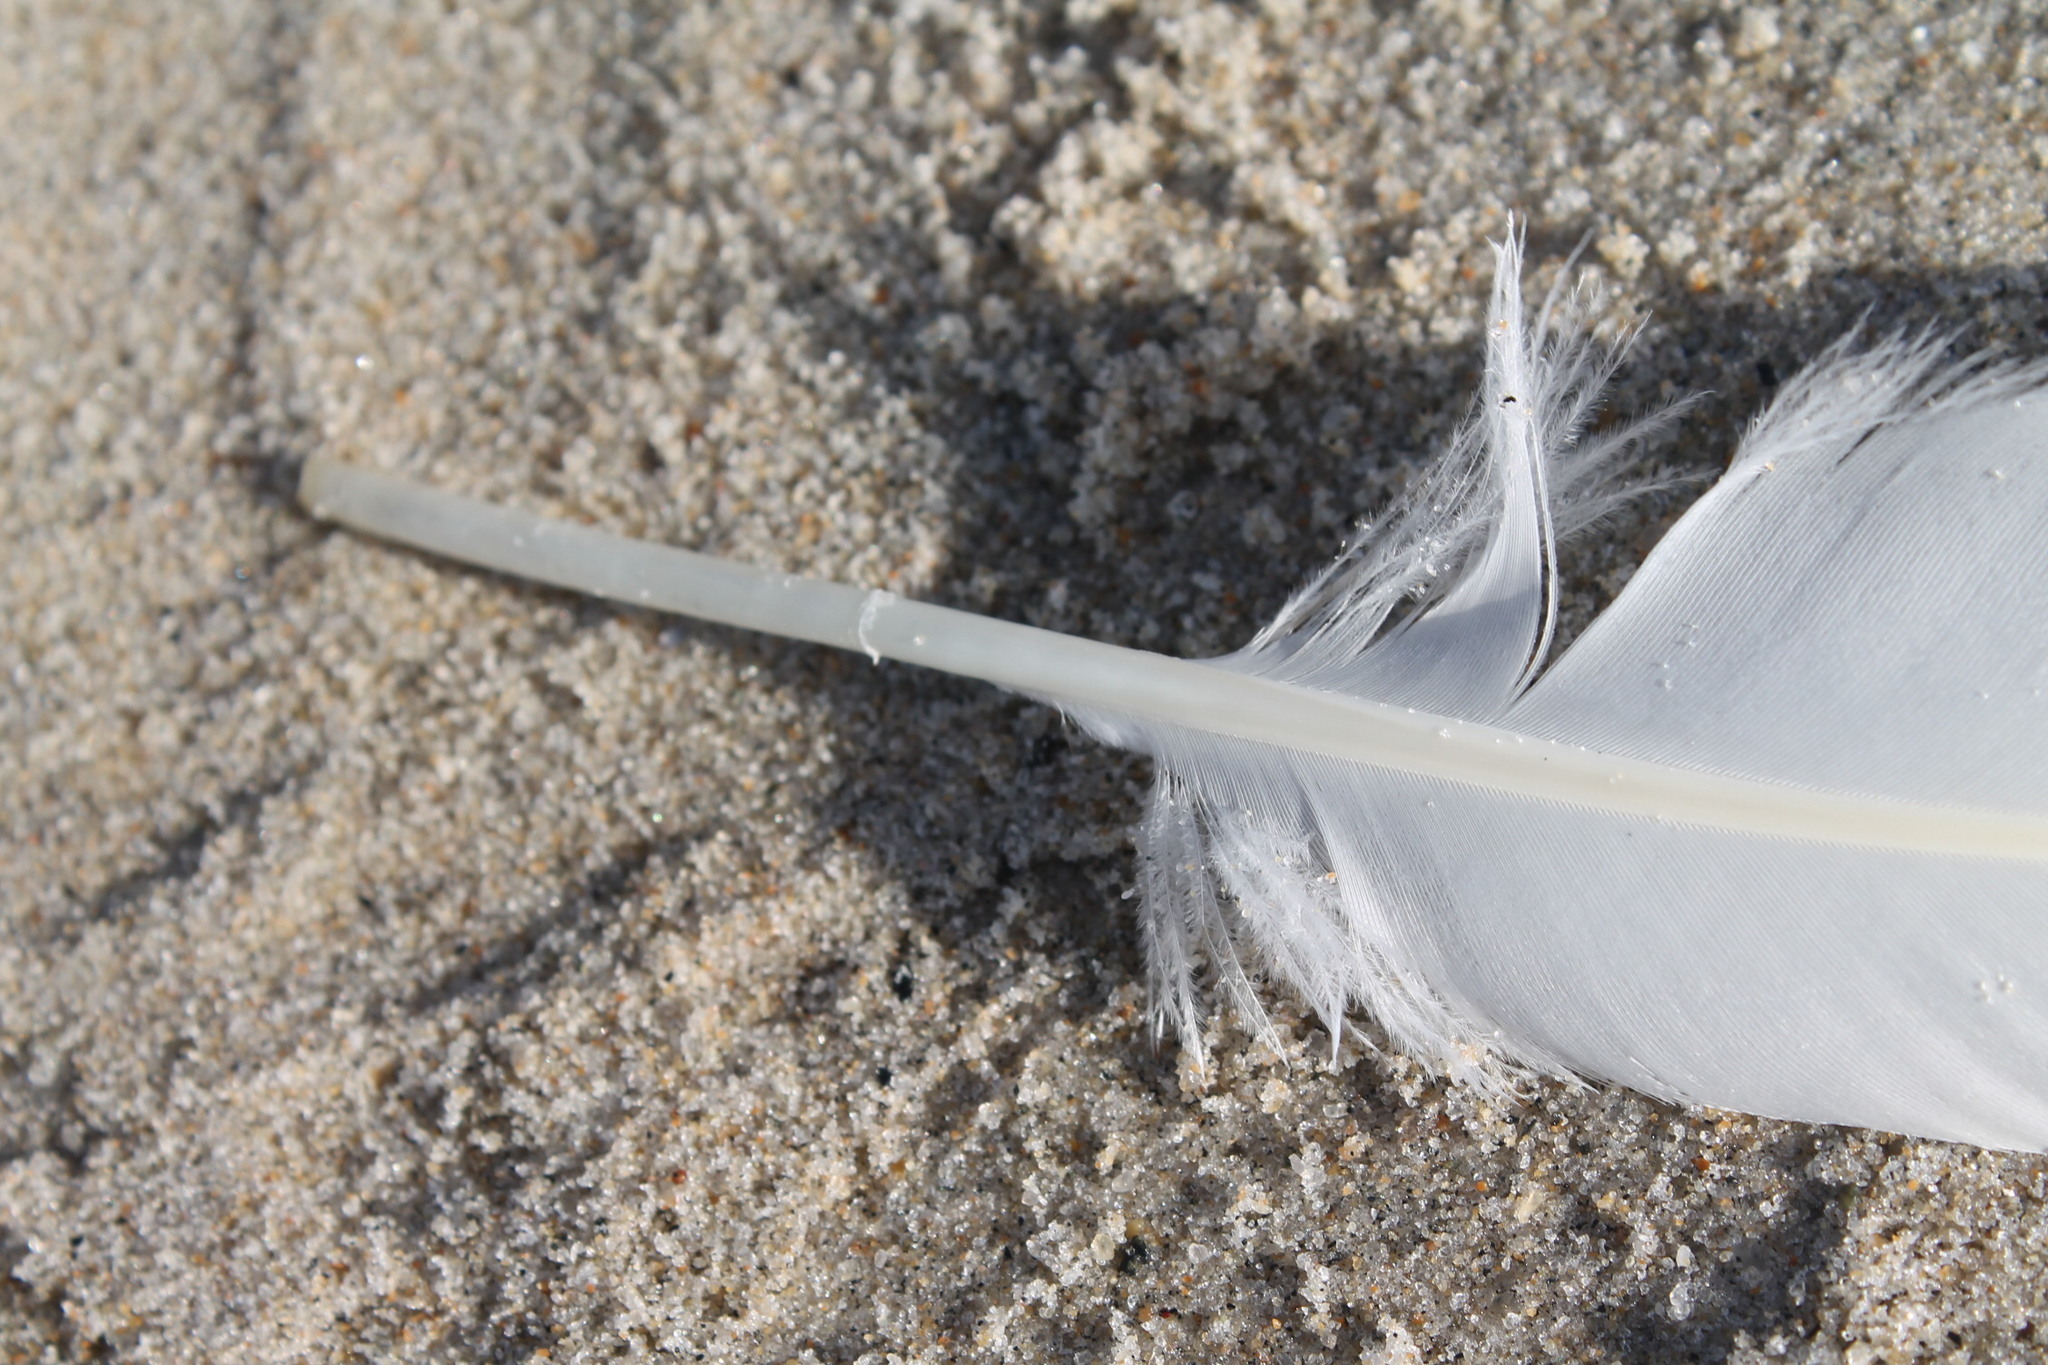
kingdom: Animalia
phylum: Chordata
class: Aves
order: Anseriformes
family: Anatidae
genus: Cygnus
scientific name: Cygnus olor
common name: Mute swan
